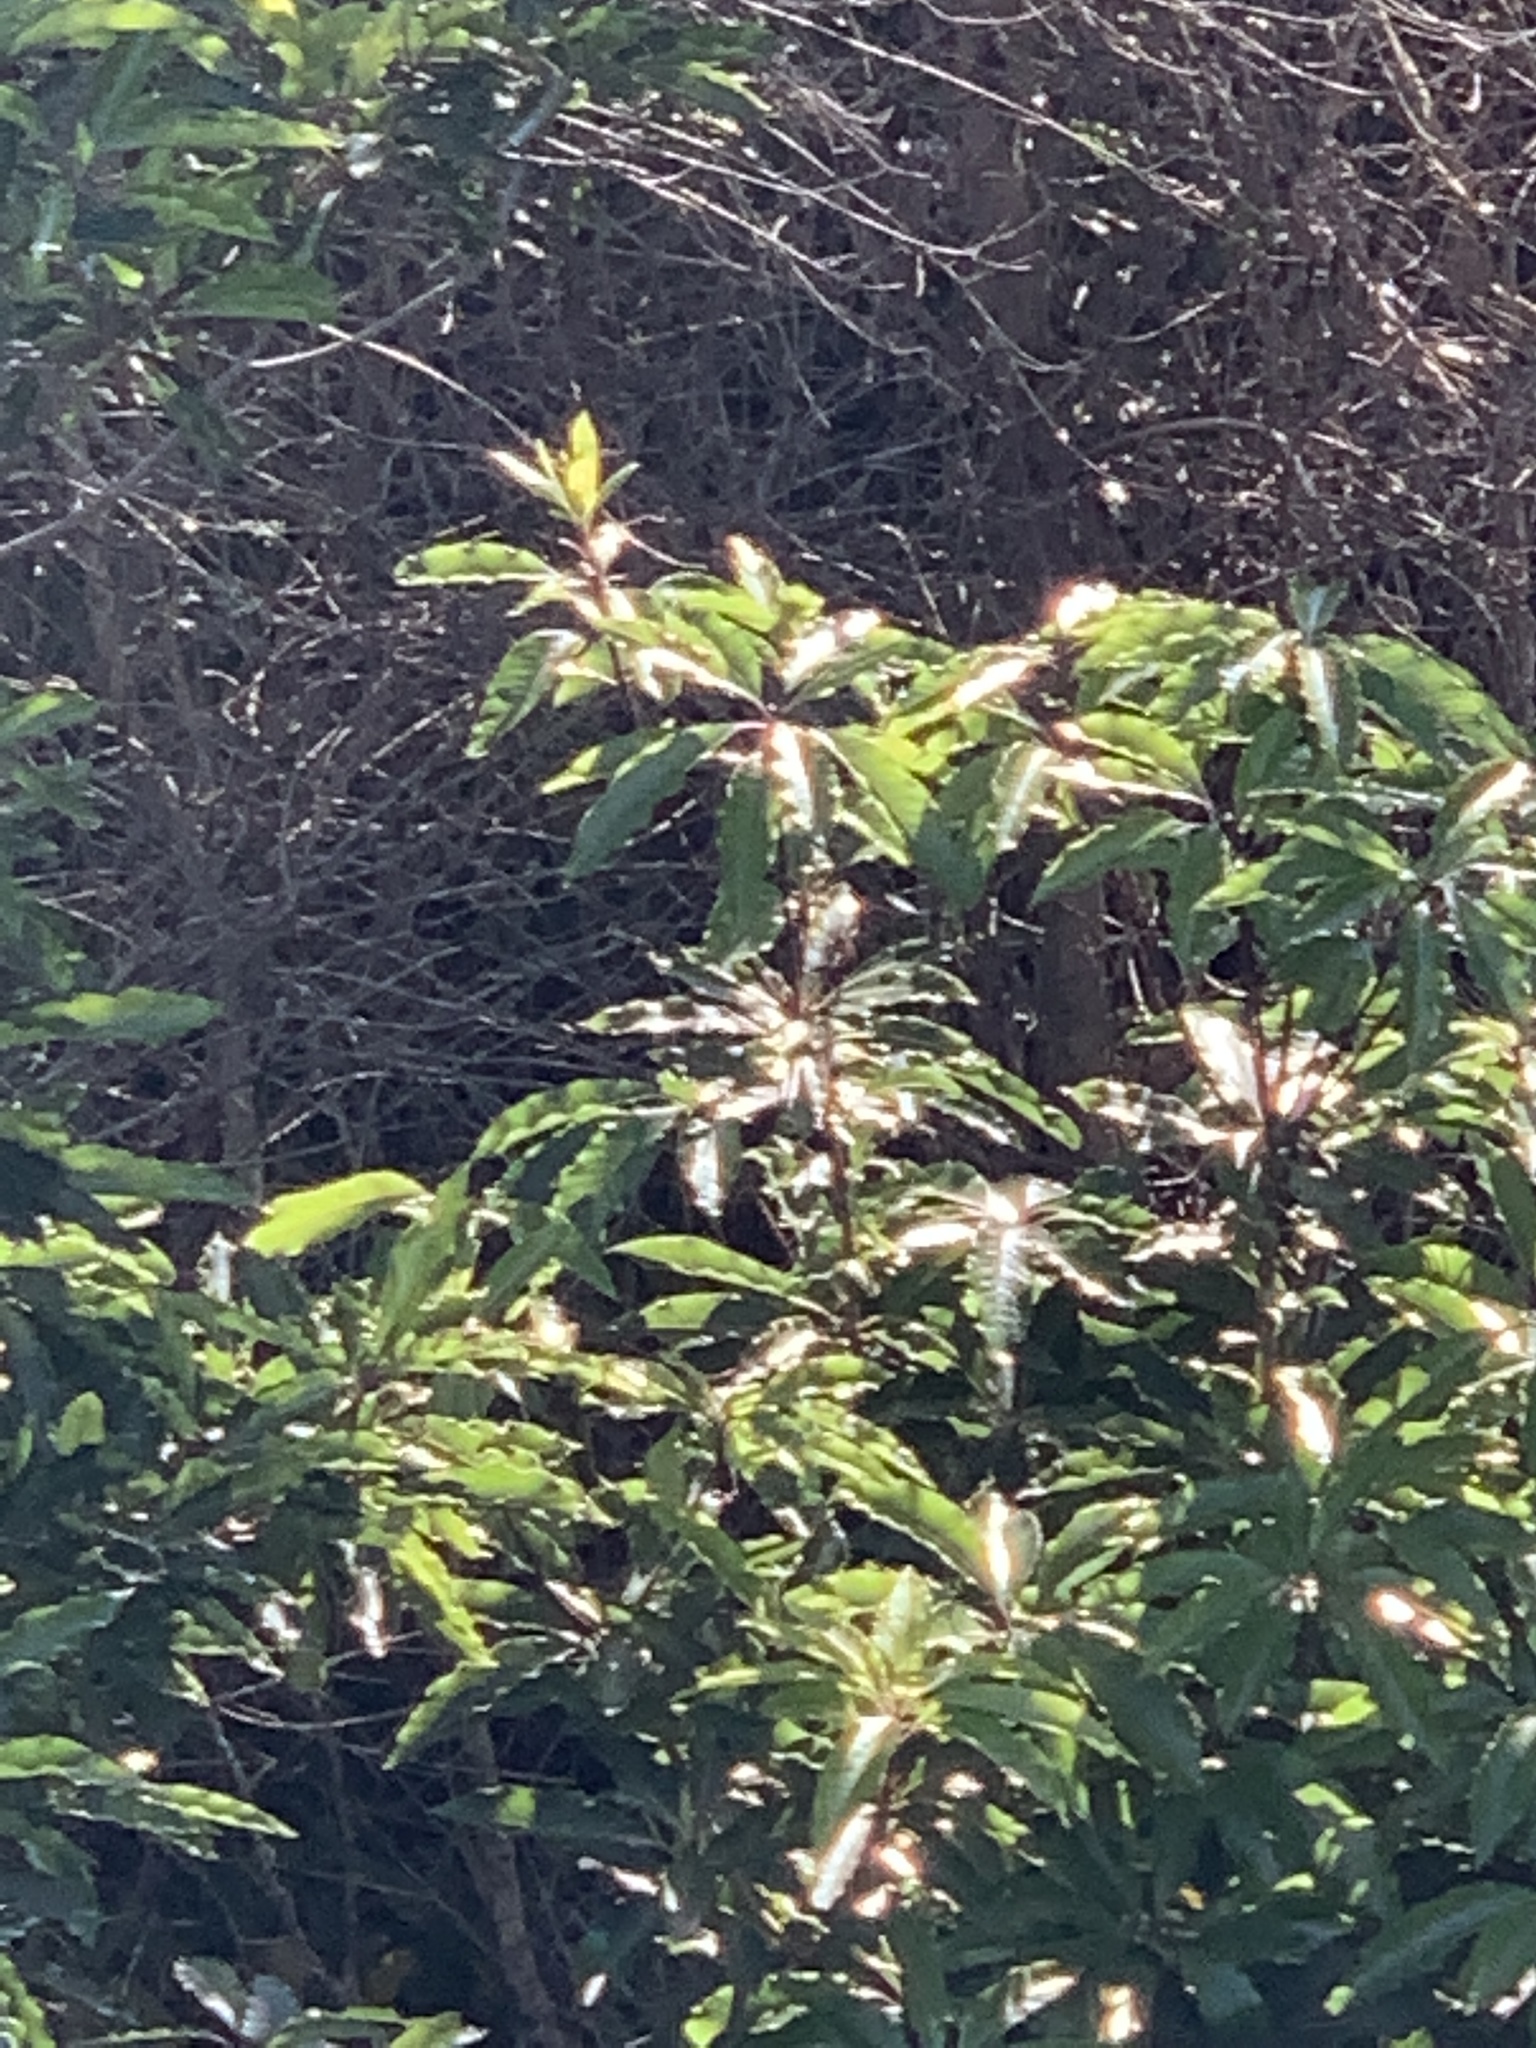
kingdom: Plantae
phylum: Tracheophyta
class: Magnoliopsida
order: Apiales
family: Pittosporaceae
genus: Pittosporum
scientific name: Pittosporum undulatum
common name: Australian cheesewood
